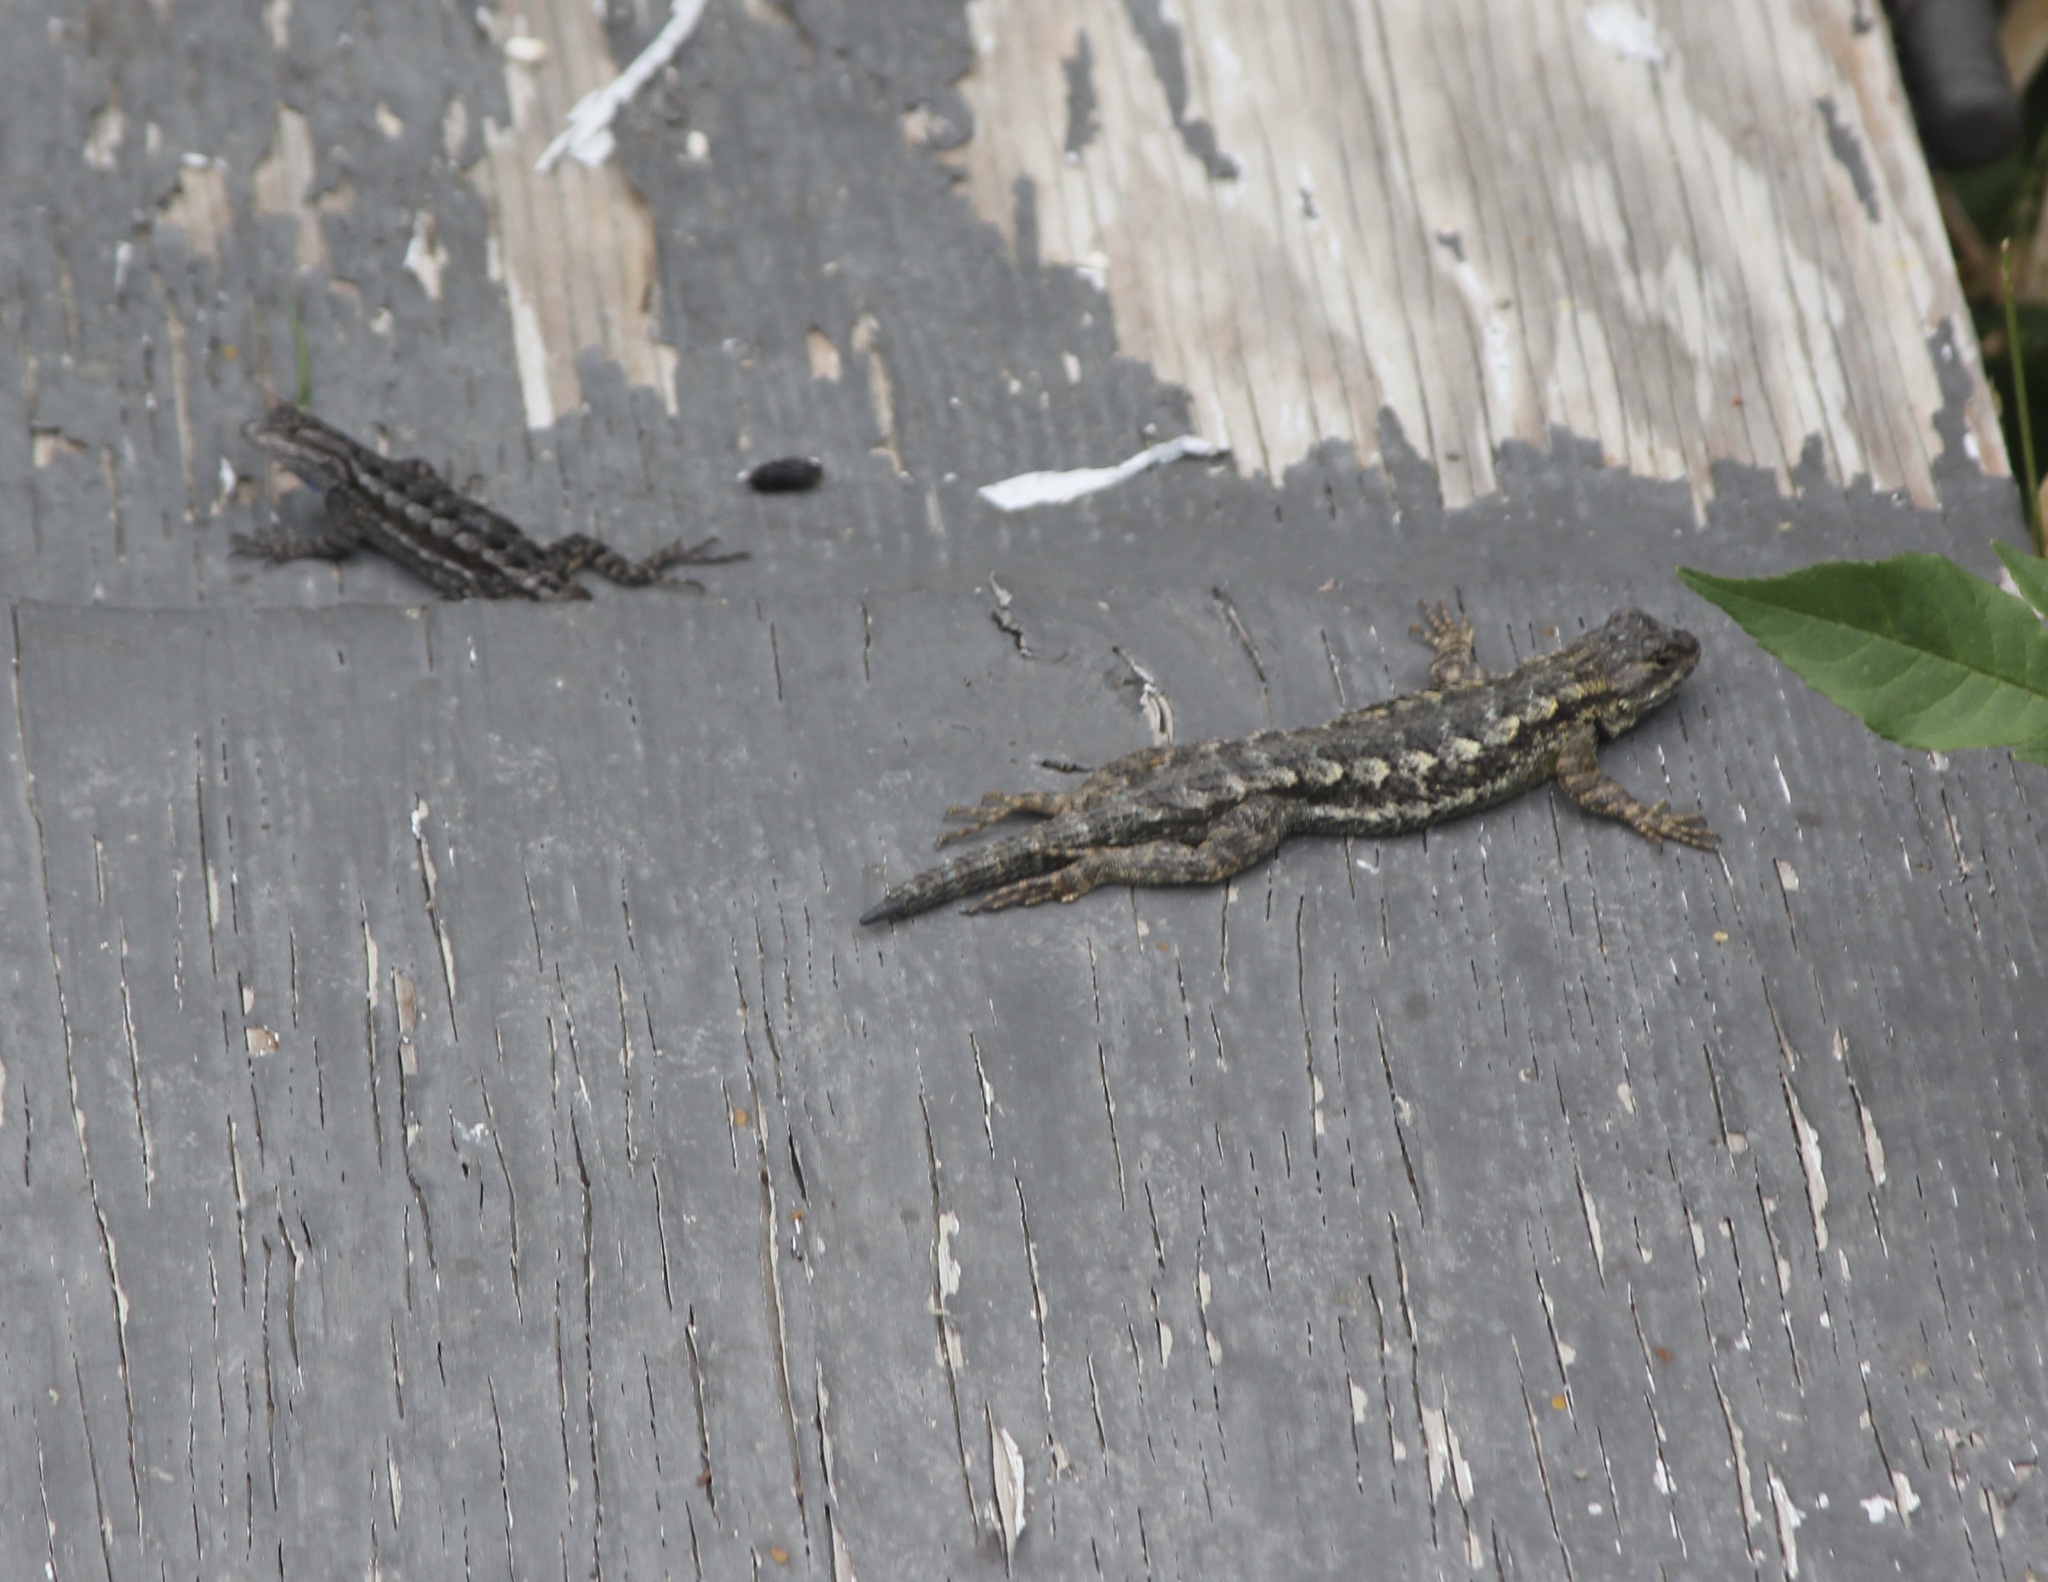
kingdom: Animalia
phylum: Chordata
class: Squamata
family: Phrynosomatidae
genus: Sceloporus
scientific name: Sceloporus occidentalis
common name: Western fence lizard
